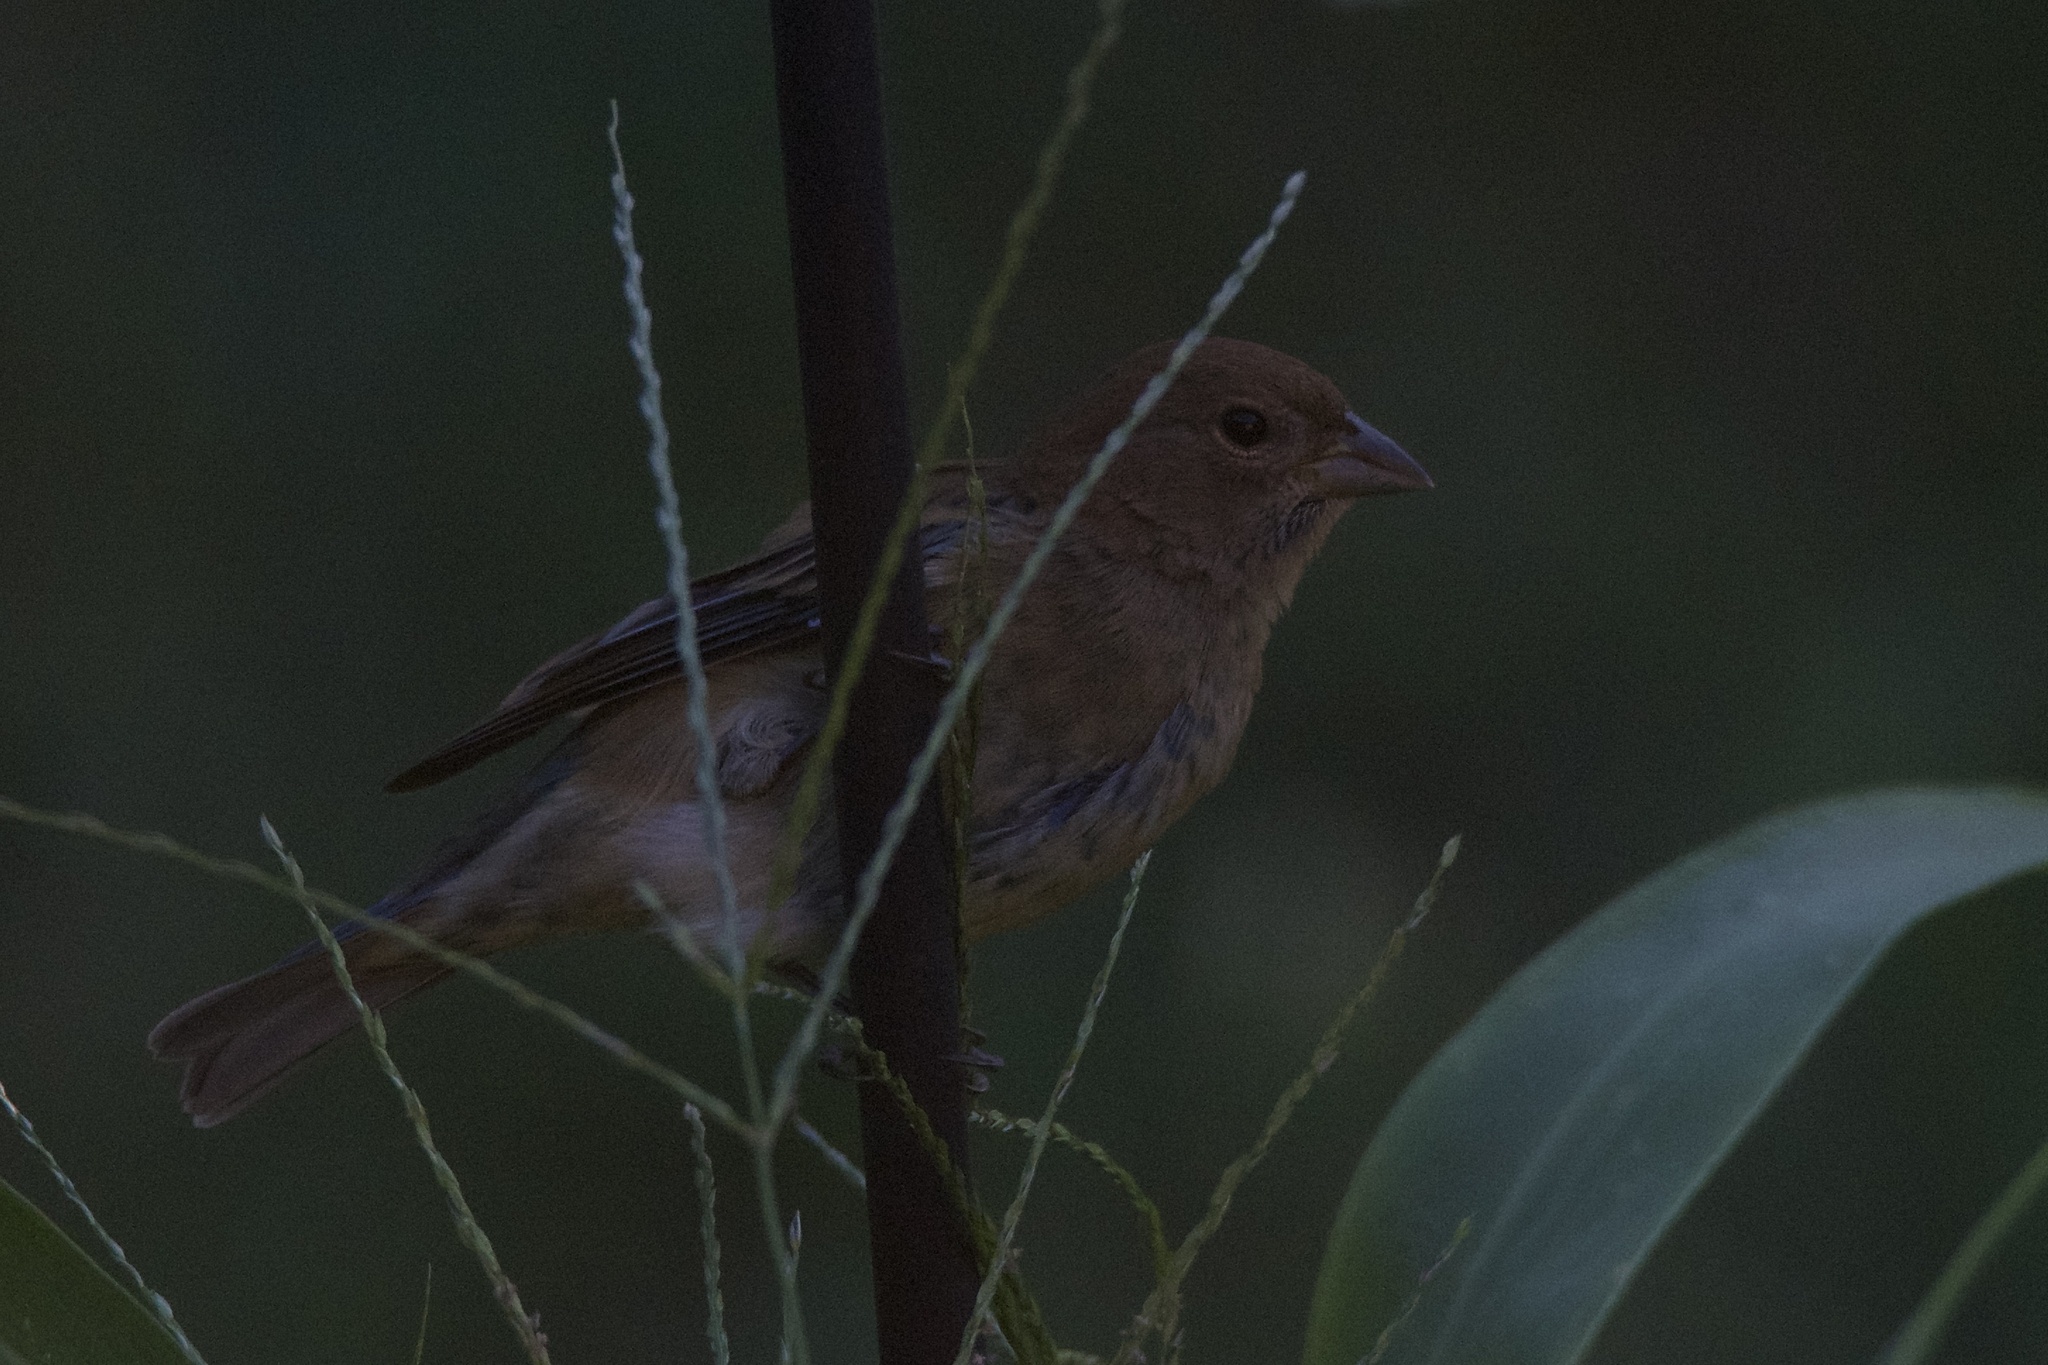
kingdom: Animalia
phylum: Chordata
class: Aves
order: Passeriformes
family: Cardinalidae
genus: Passerina
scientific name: Passerina cyanea
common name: Indigo bunting
